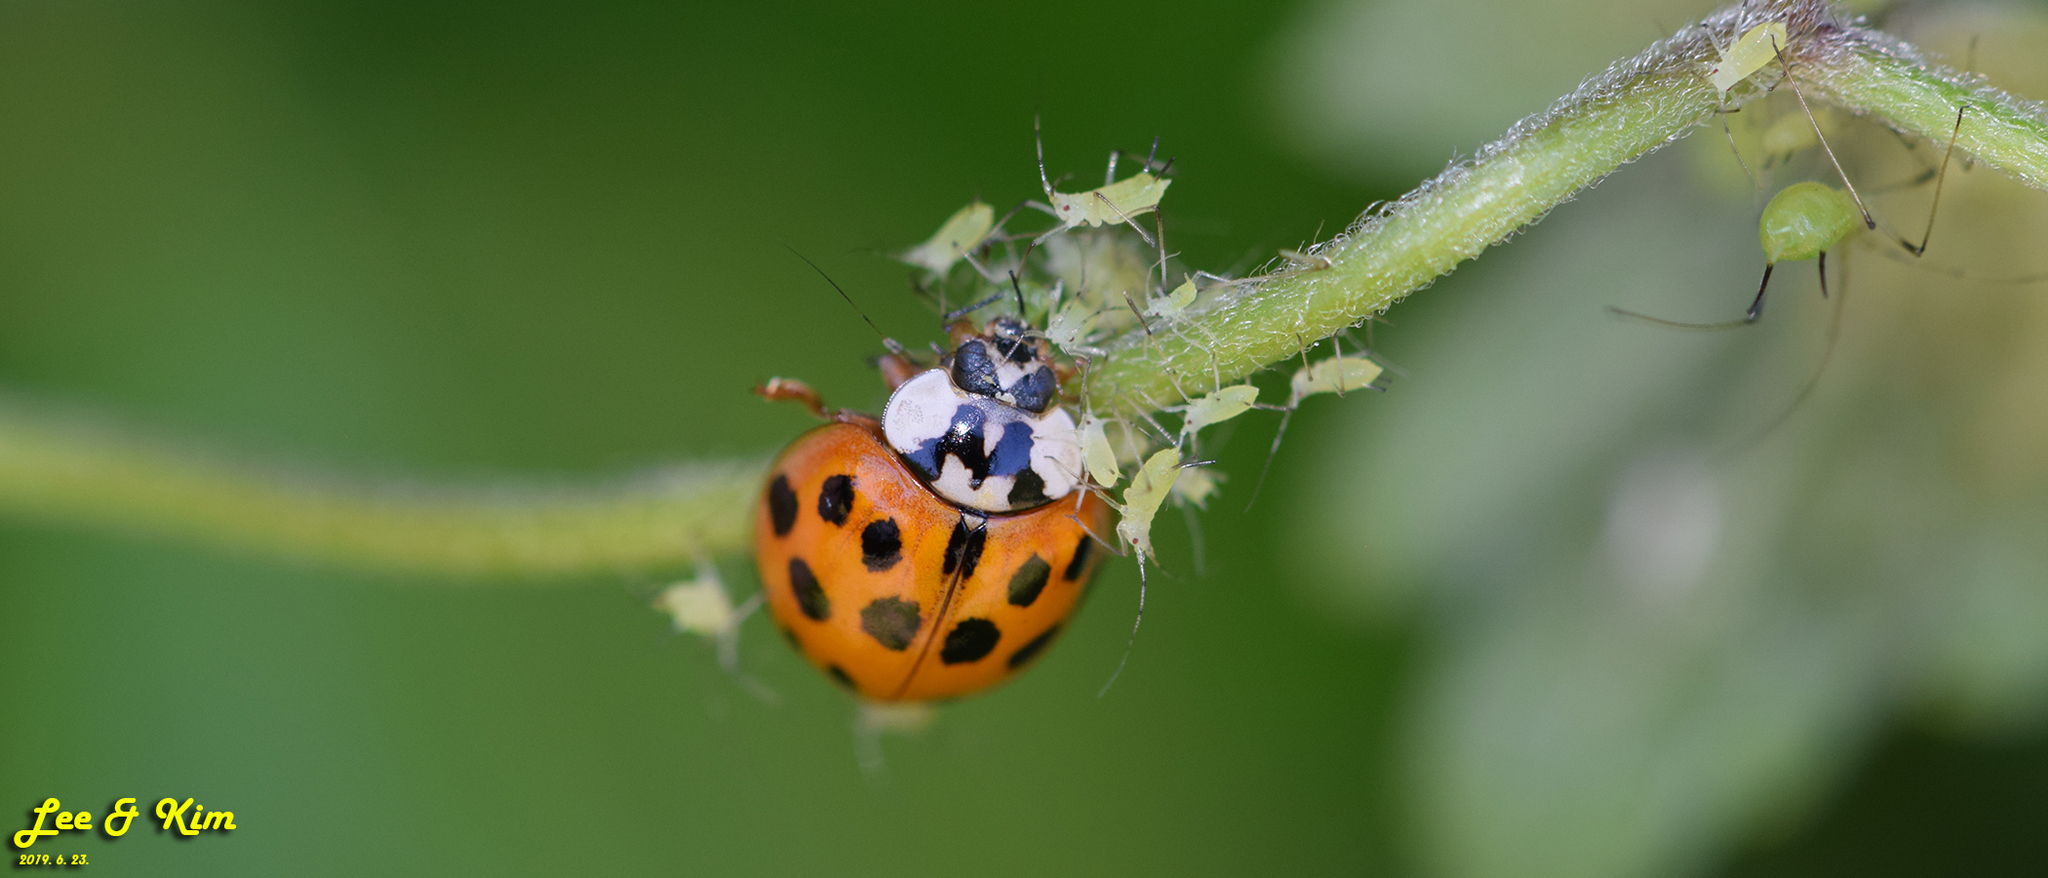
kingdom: Animalia
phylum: Arthropoda
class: Insecta
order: Coleoptera
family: Coccinellidae
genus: Harmonia
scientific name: Harmonia axyridis
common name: Harlequin ladybird
